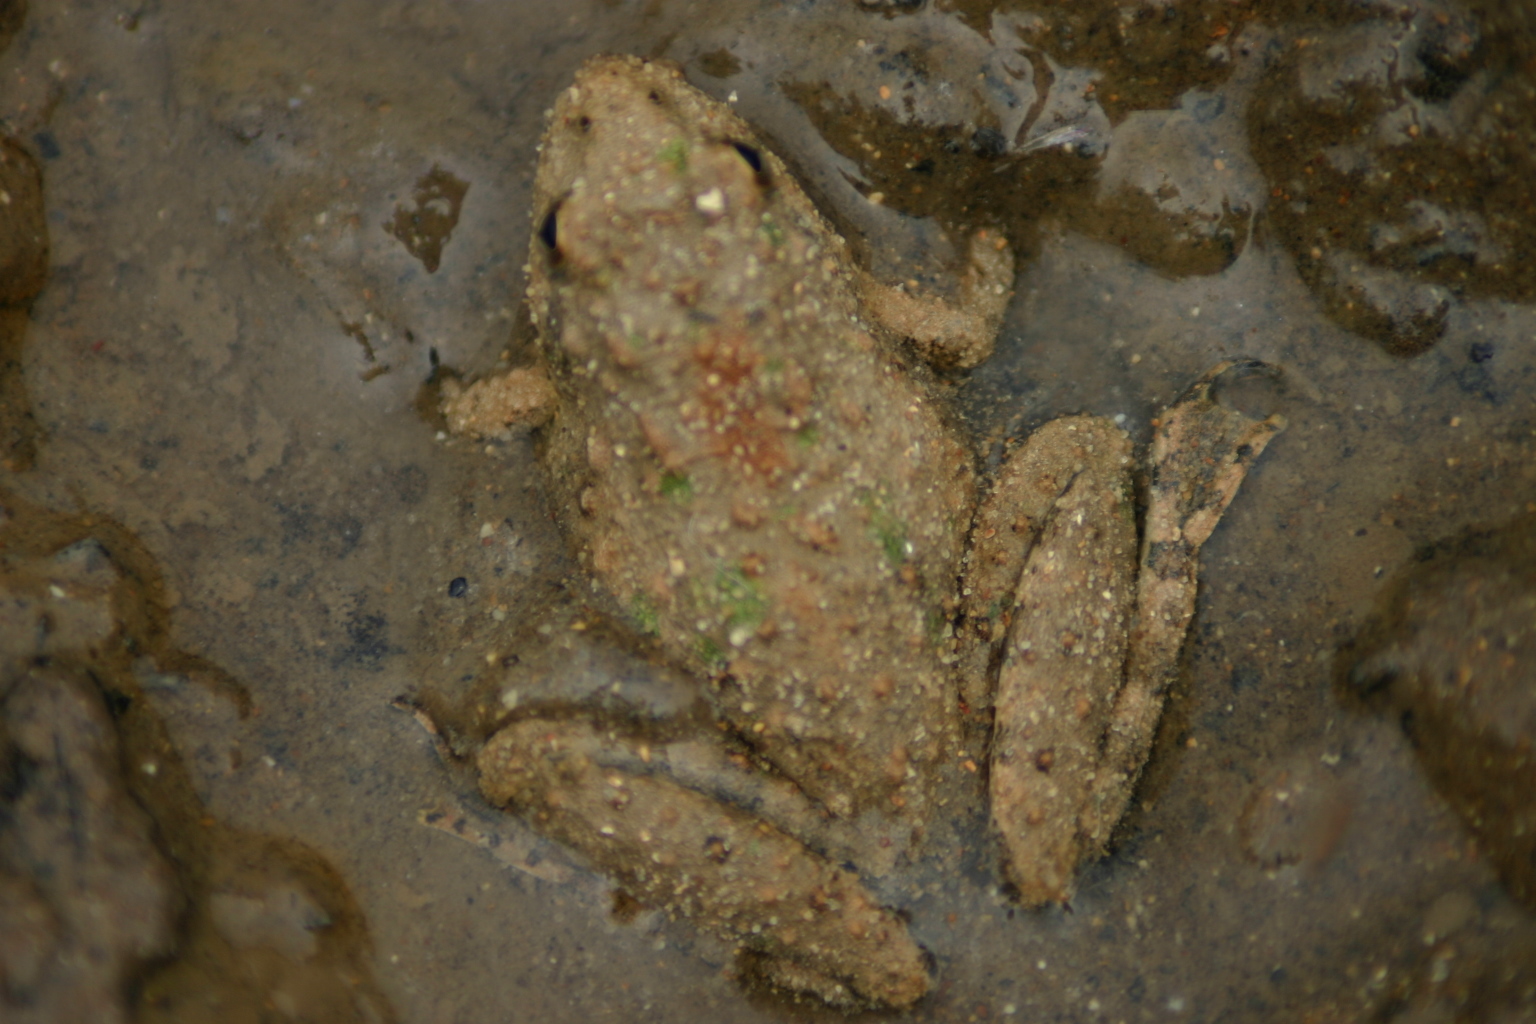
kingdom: Animalia
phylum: Chordata
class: Amphibia
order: Anura
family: Hylidae
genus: Acris
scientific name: Acris blanchardi
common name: Blanchard's cricket frog
